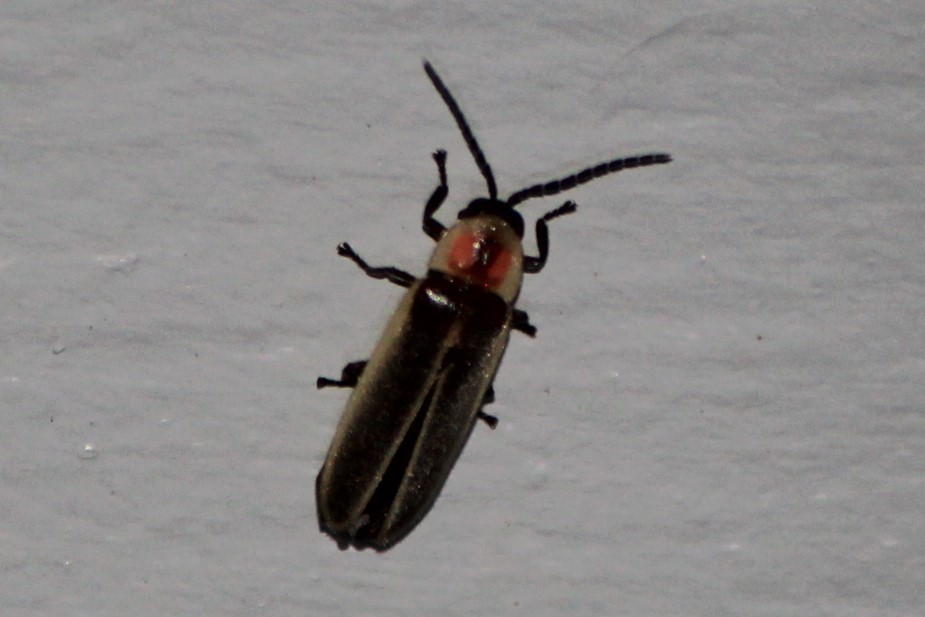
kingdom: Animalia
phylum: Arthropoda
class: Insecta
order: Coleoptera
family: Lampyridae
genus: Photinus
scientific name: Photinus ignitus
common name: Delayed photinus firefly
